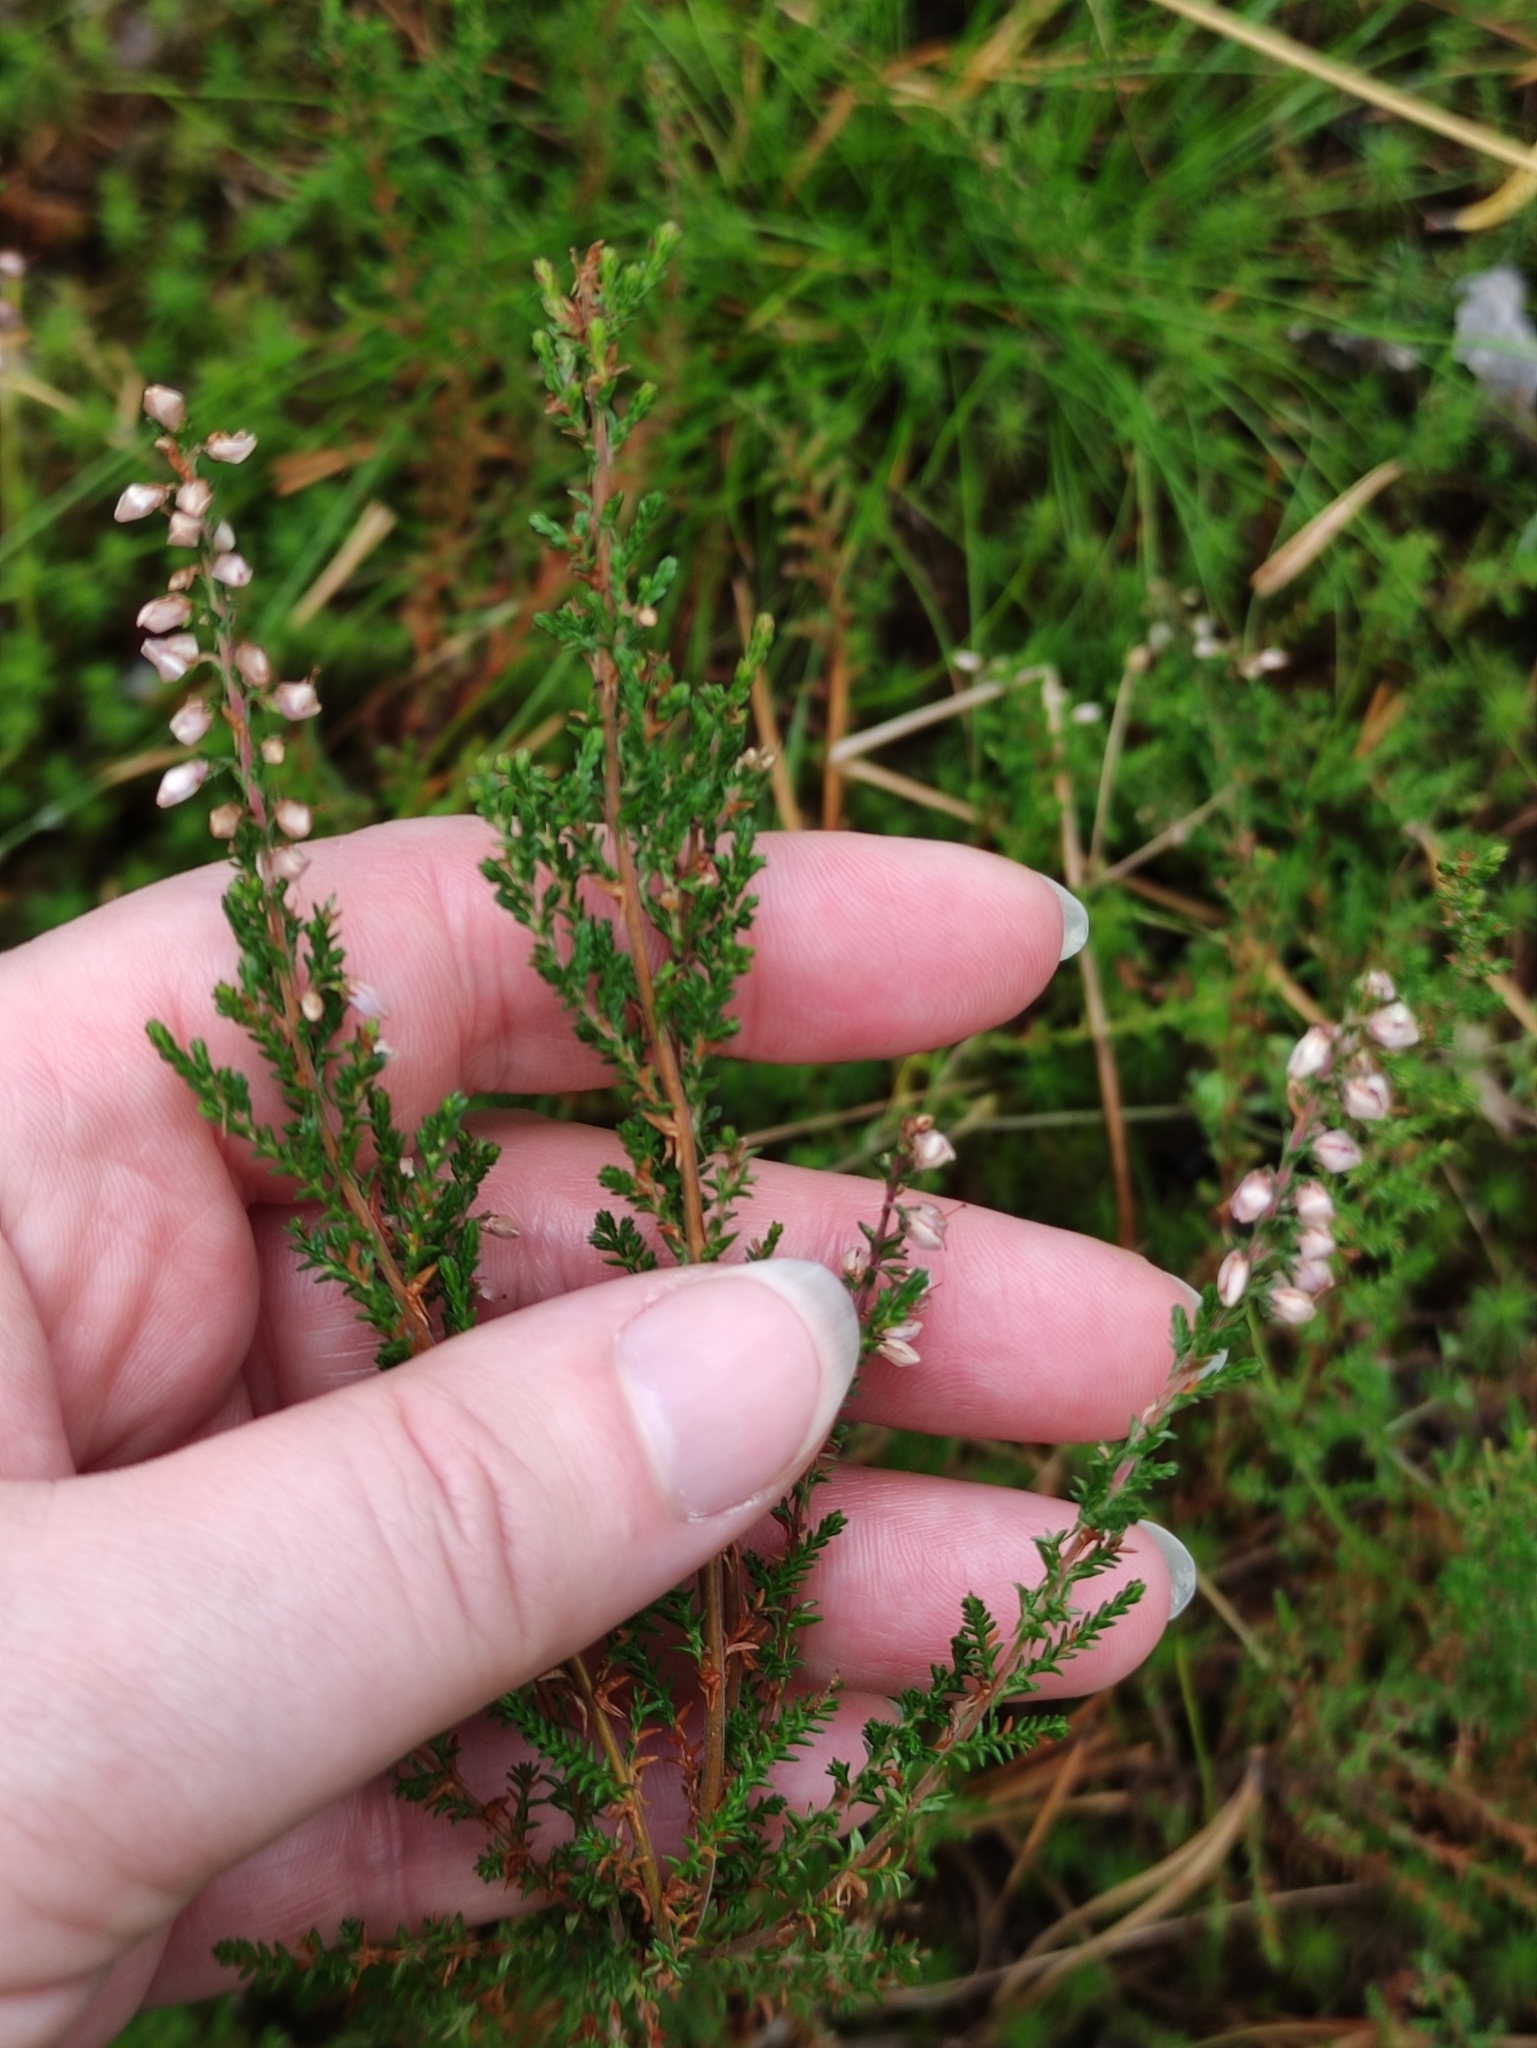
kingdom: Plantae
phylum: Tracheophyta
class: Magnoliopsida
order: Ericales
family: Ericaceae
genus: Calluna
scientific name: Calluna vulgaris
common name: Heather
